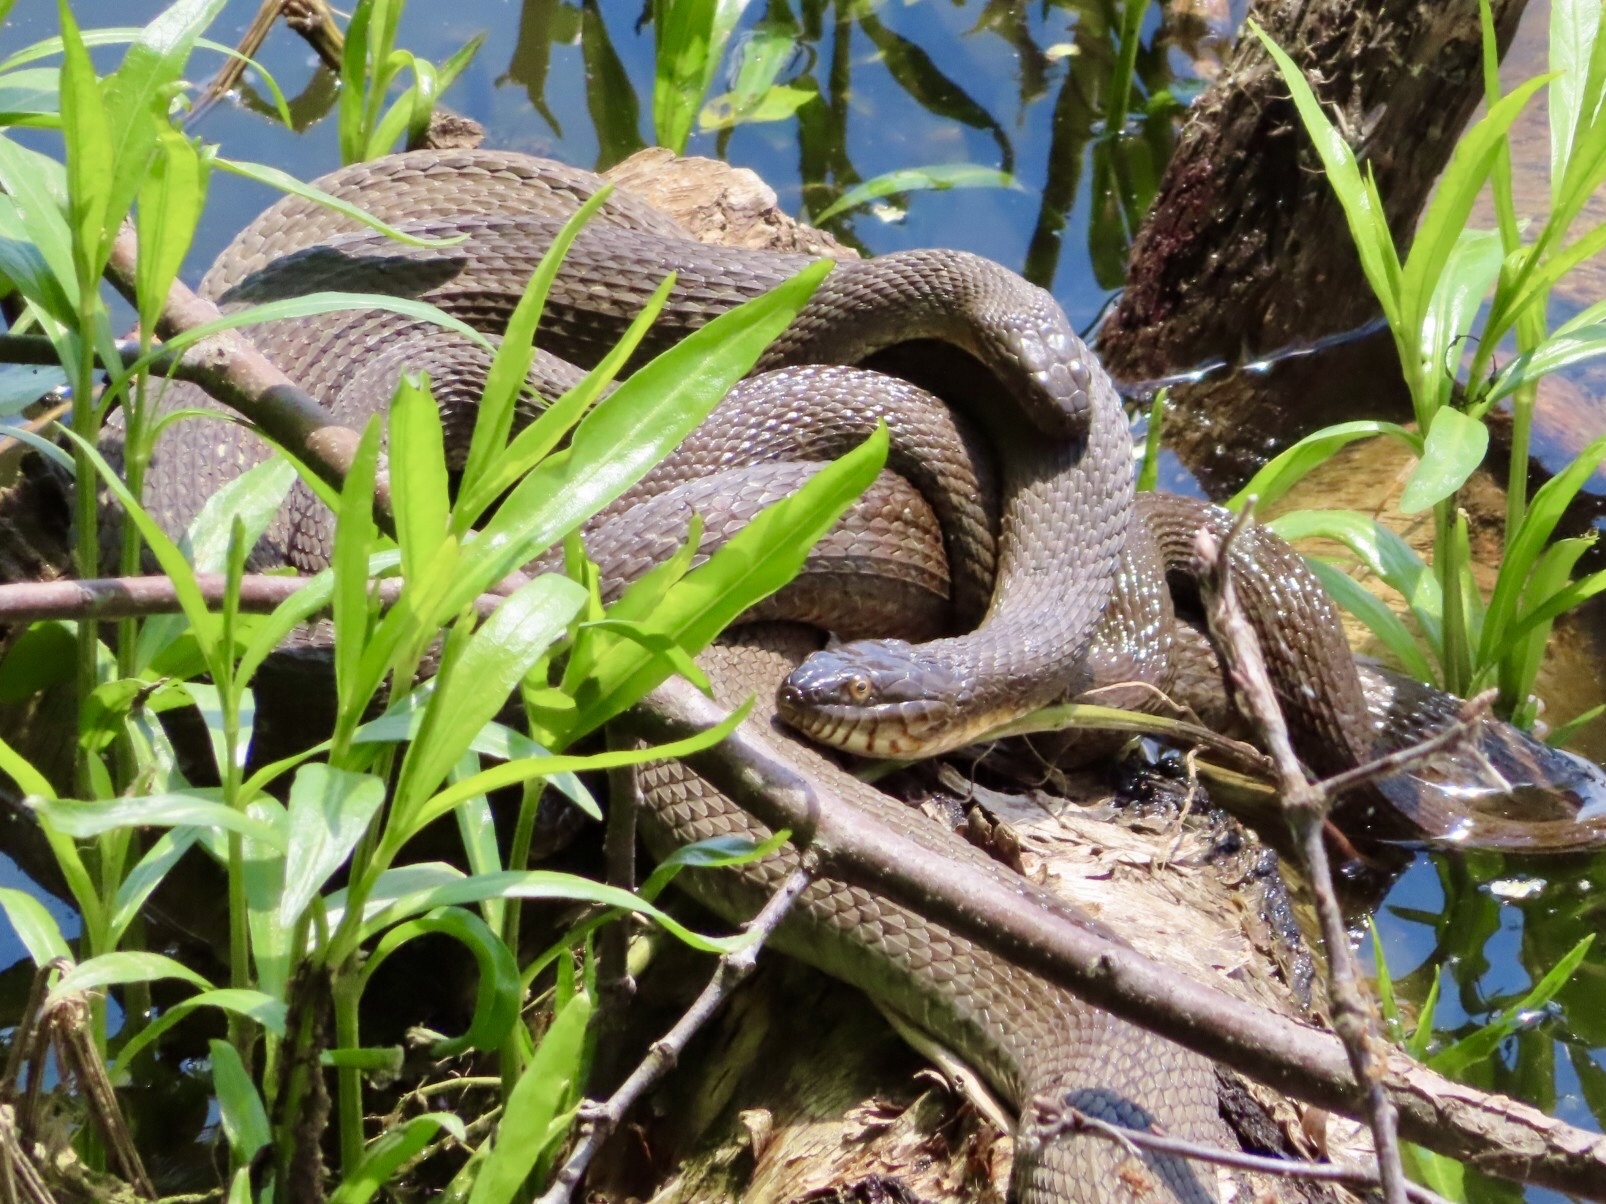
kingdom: Animalia
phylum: Chordata
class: Squamata
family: Colubridae
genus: Nerodia
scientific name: Nerodia sipedon
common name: Northern water snake
